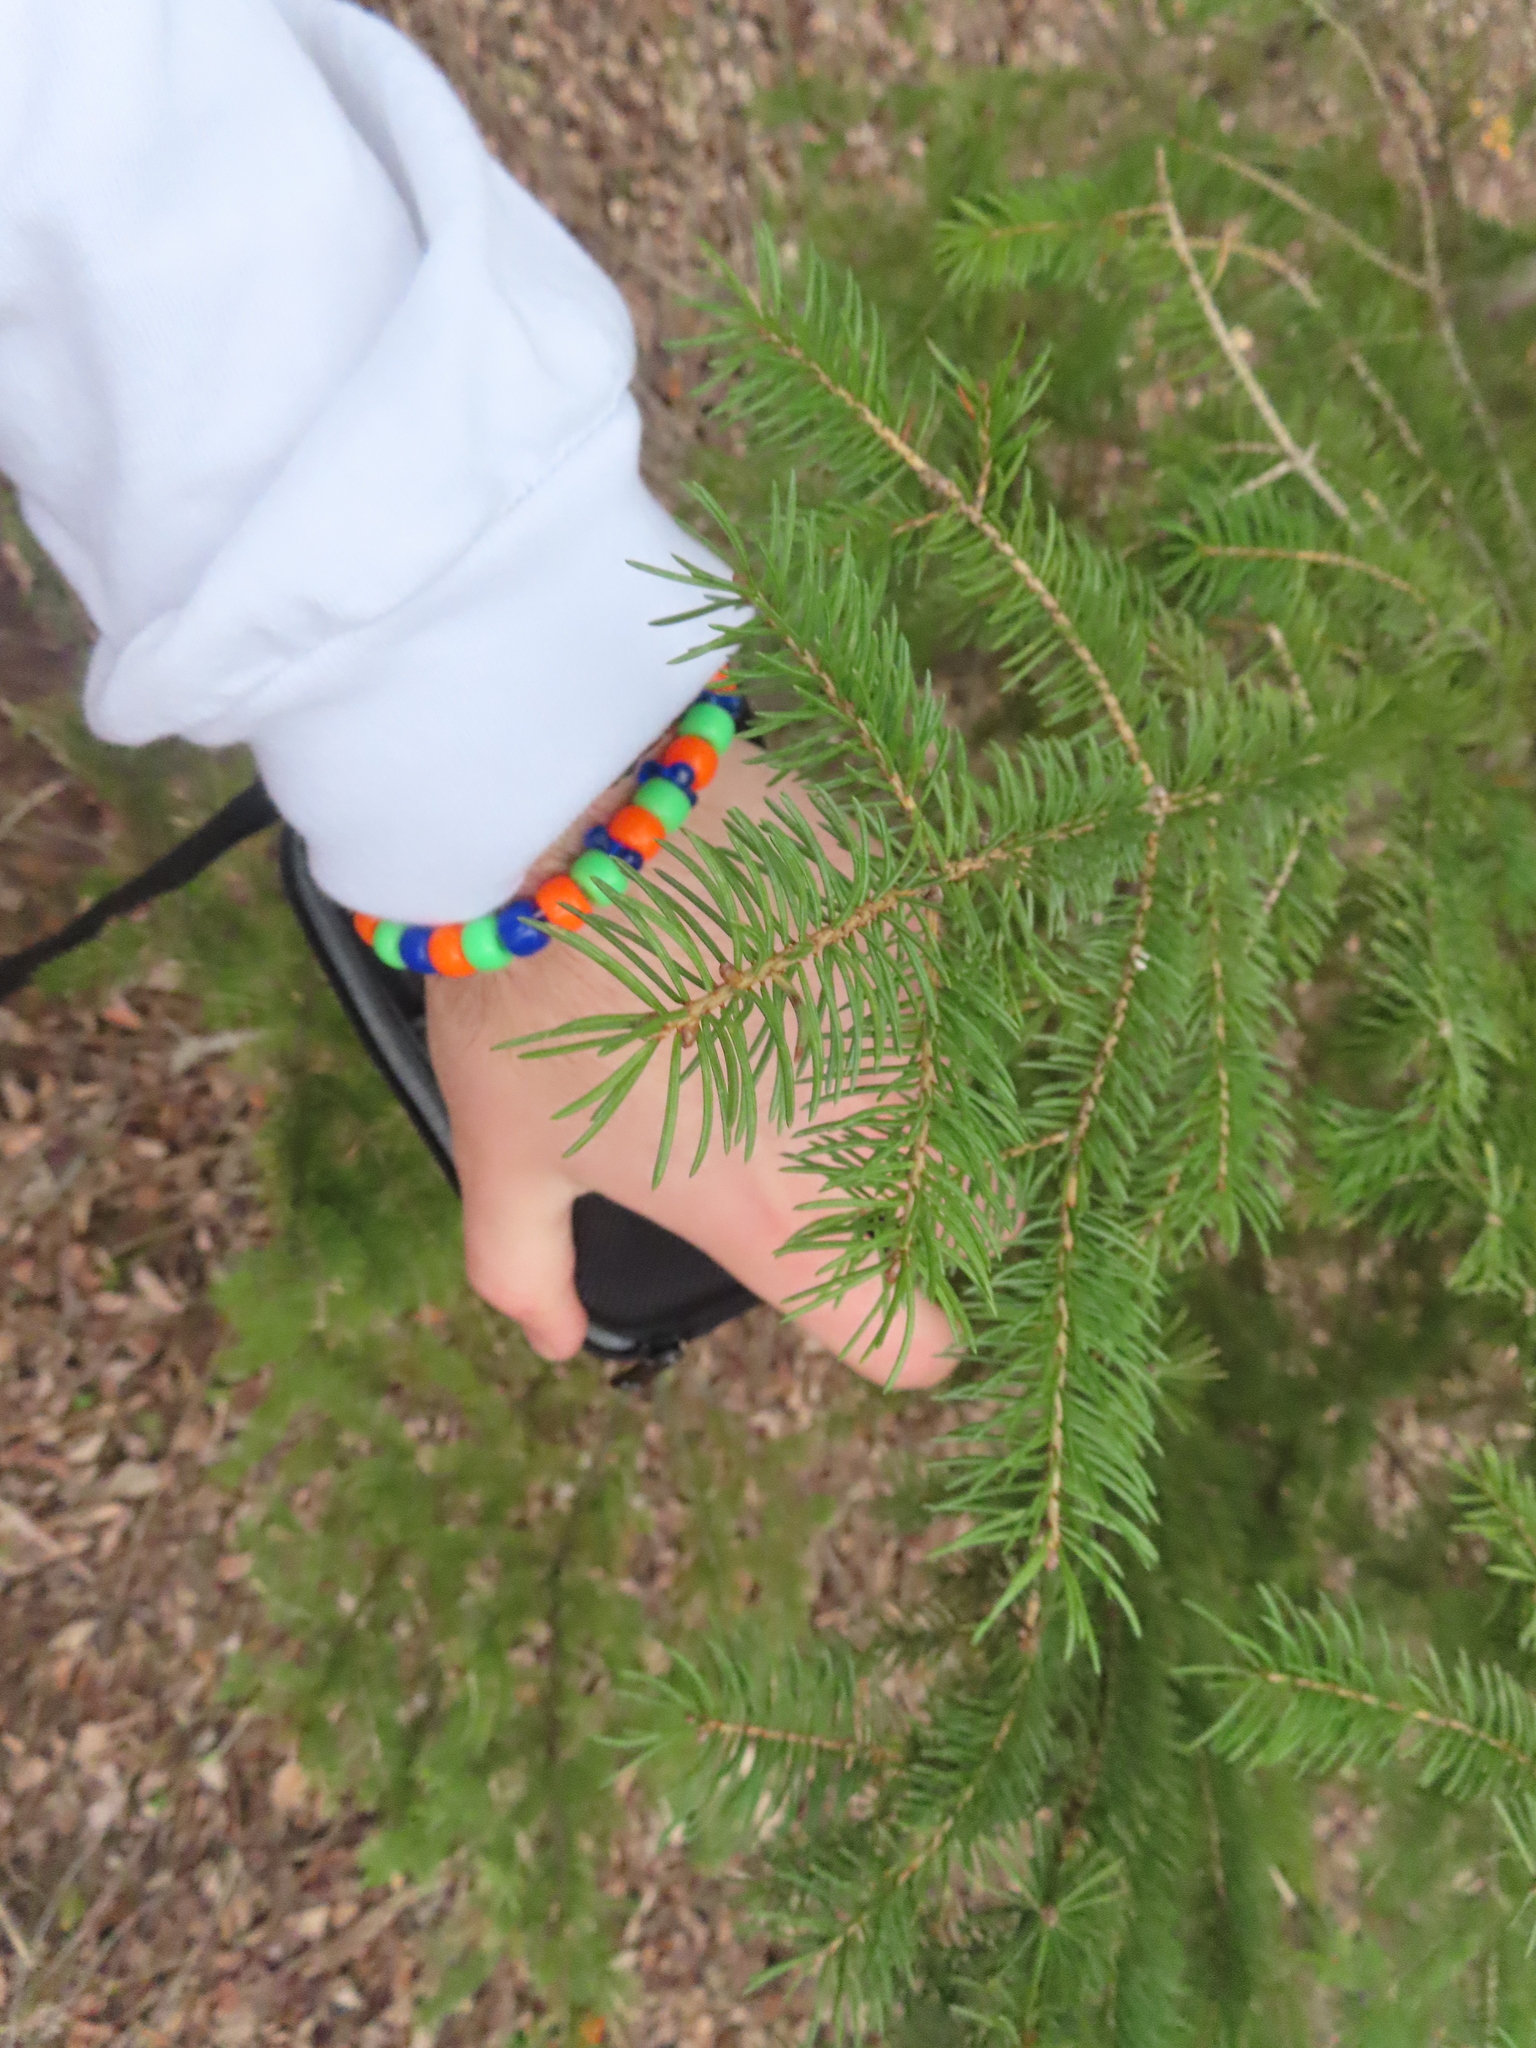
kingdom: Plantae
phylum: Tracheophyta
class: Pinopsida
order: Pinales
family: Pinaceae
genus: Picea
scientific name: Picea glauca
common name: White spruce
